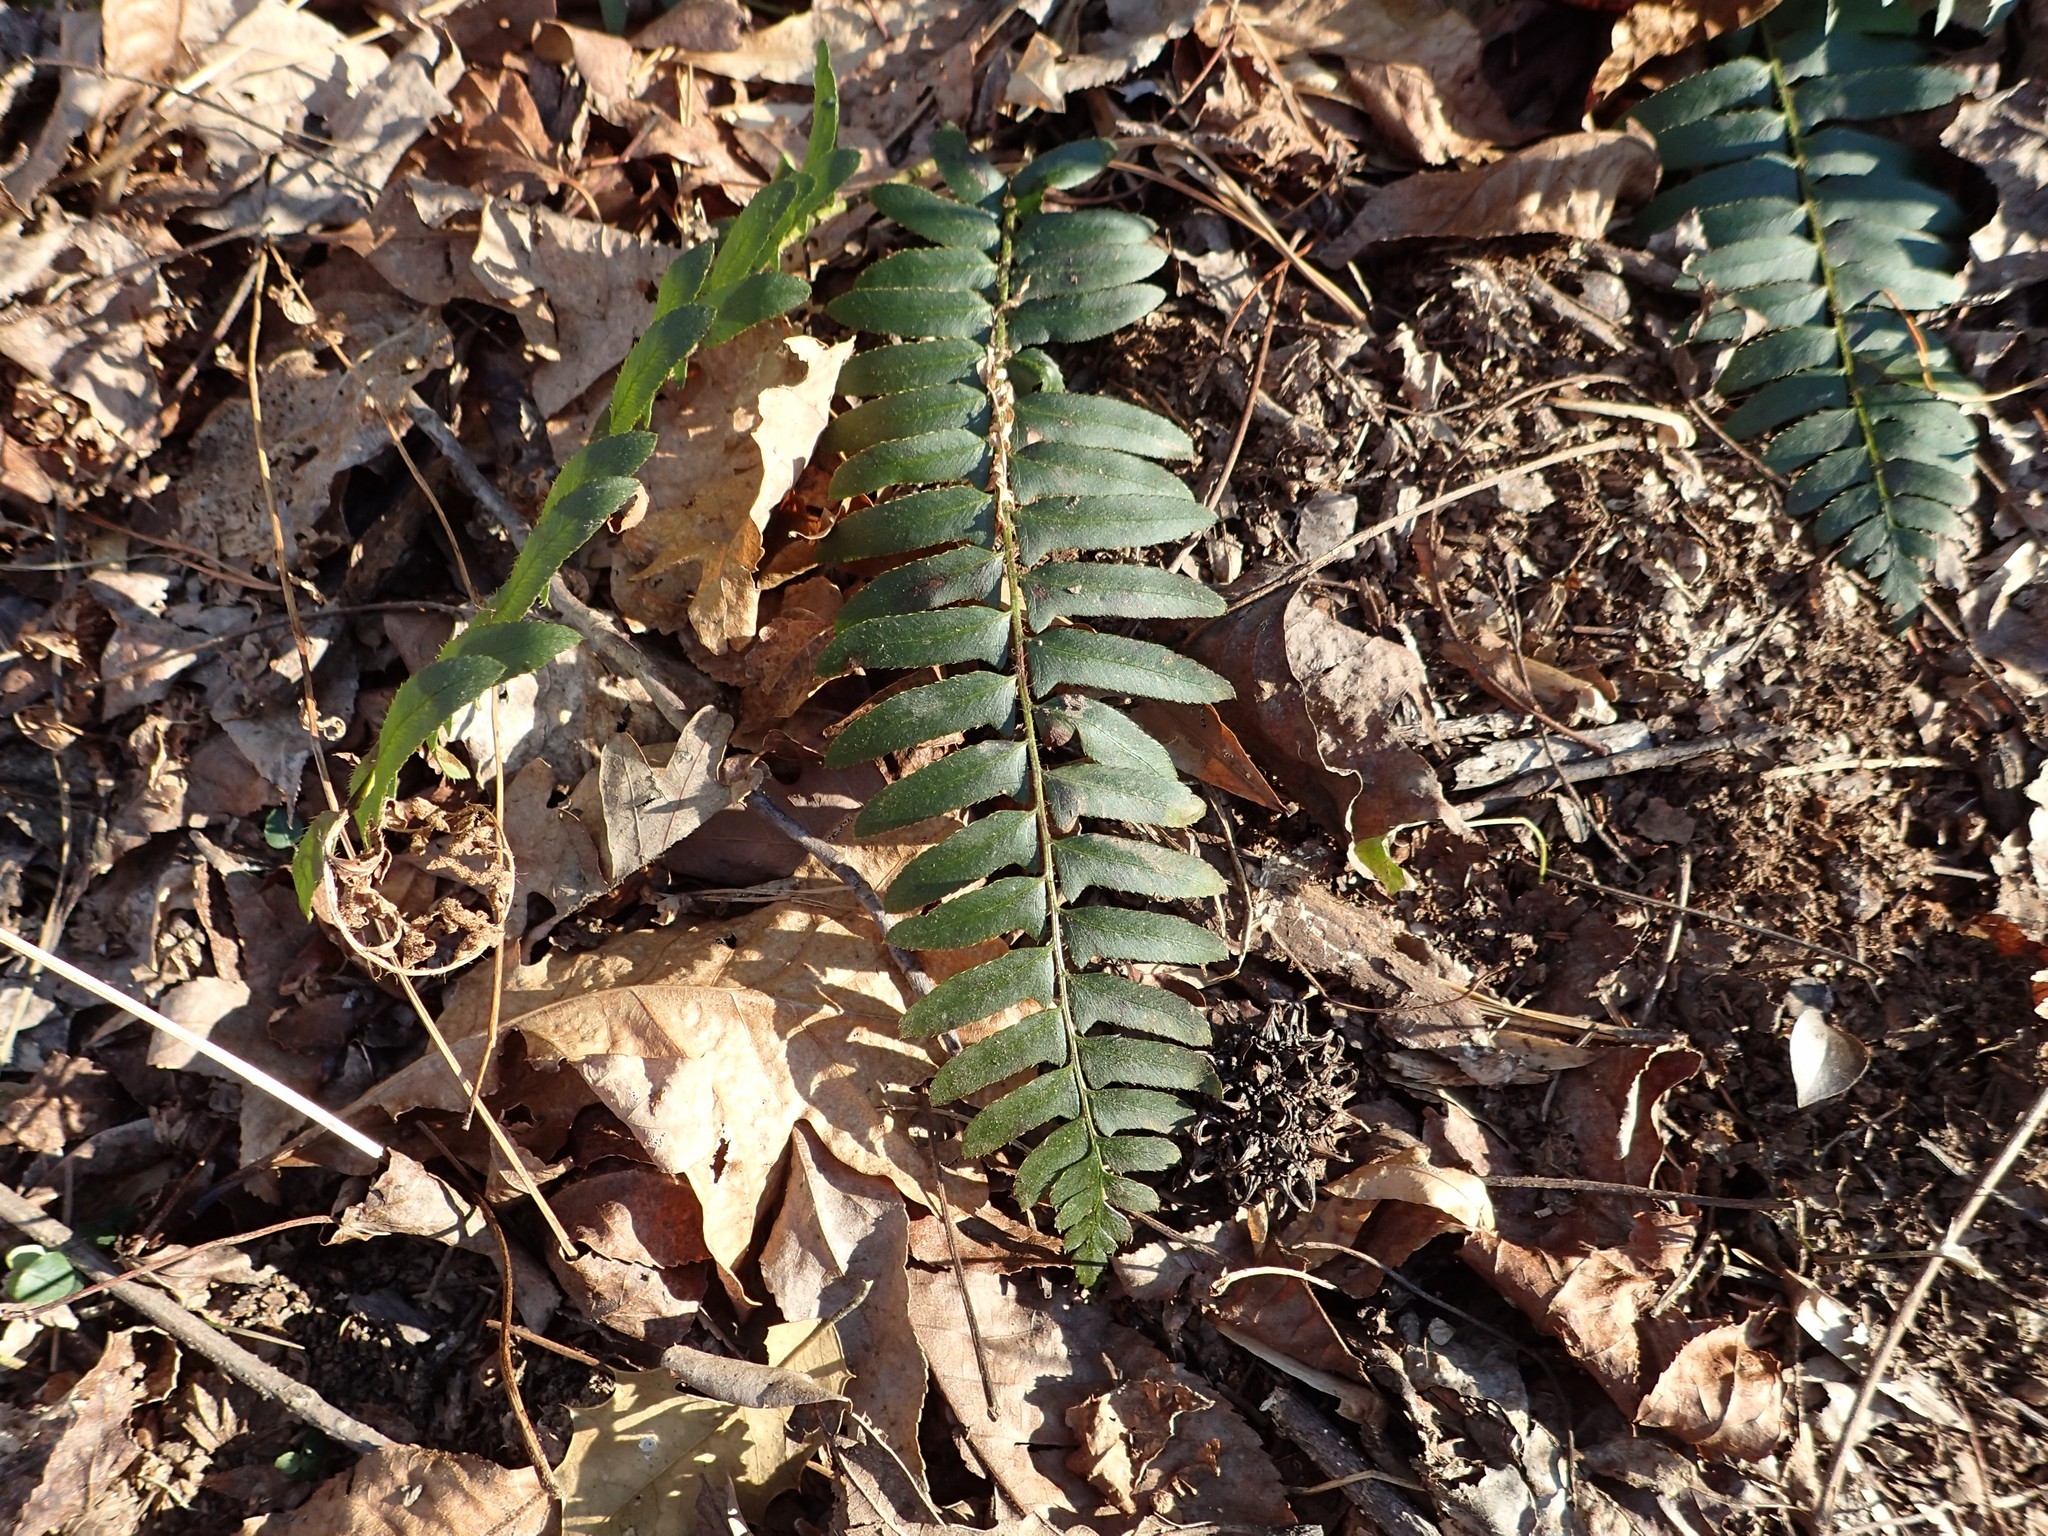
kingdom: Plantae
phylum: Tracheophyta
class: Polypodiopsida
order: Polypodiales
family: Dryopteridaceae
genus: Polystichum
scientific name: Polystichum acrostichoides
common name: Christmas fern
